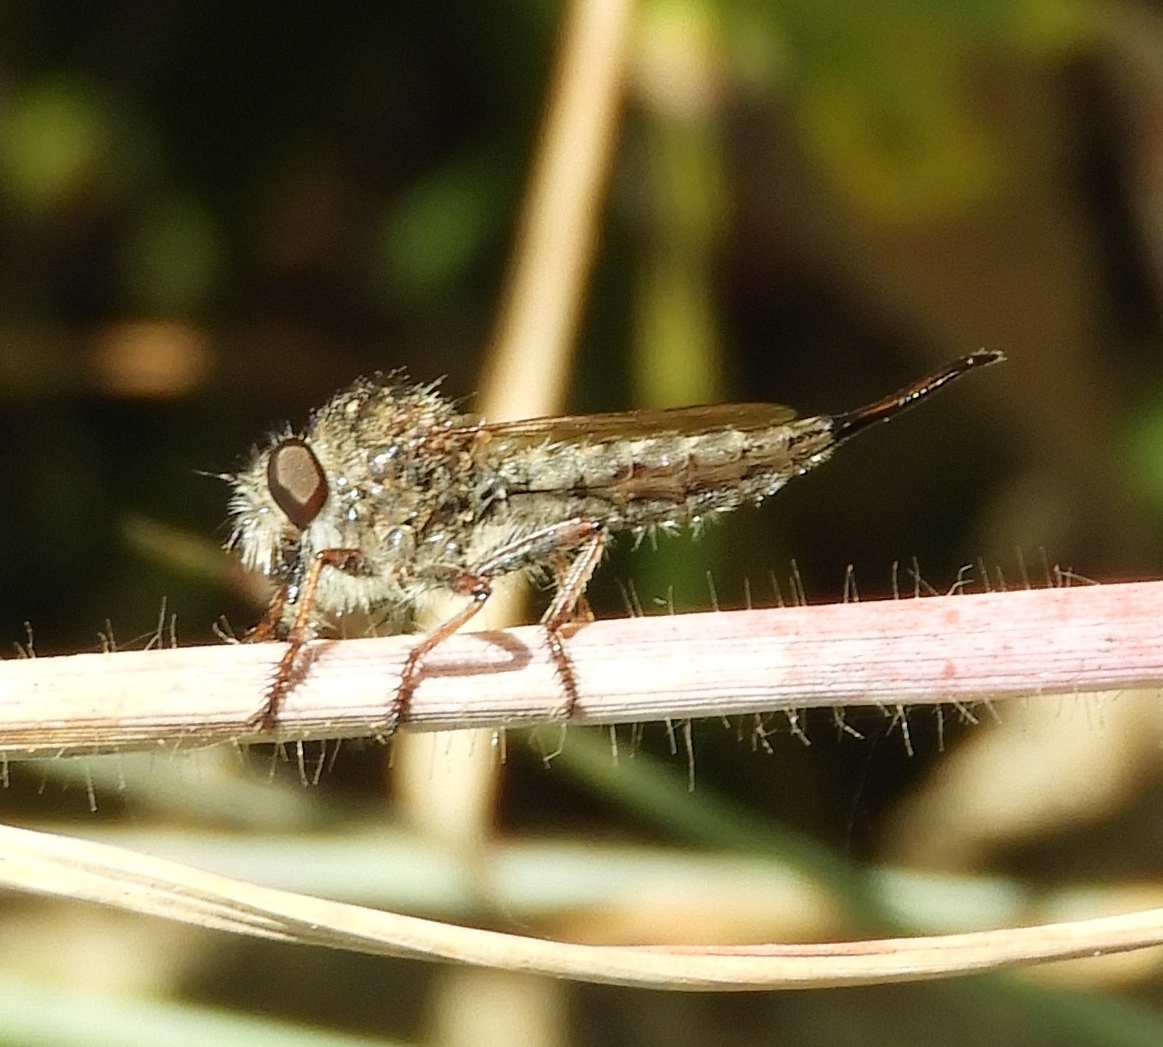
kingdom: Animalia
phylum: Arthropoda
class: Insecta
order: Diptera
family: Asilidae
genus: Efferia
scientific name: Efferia
